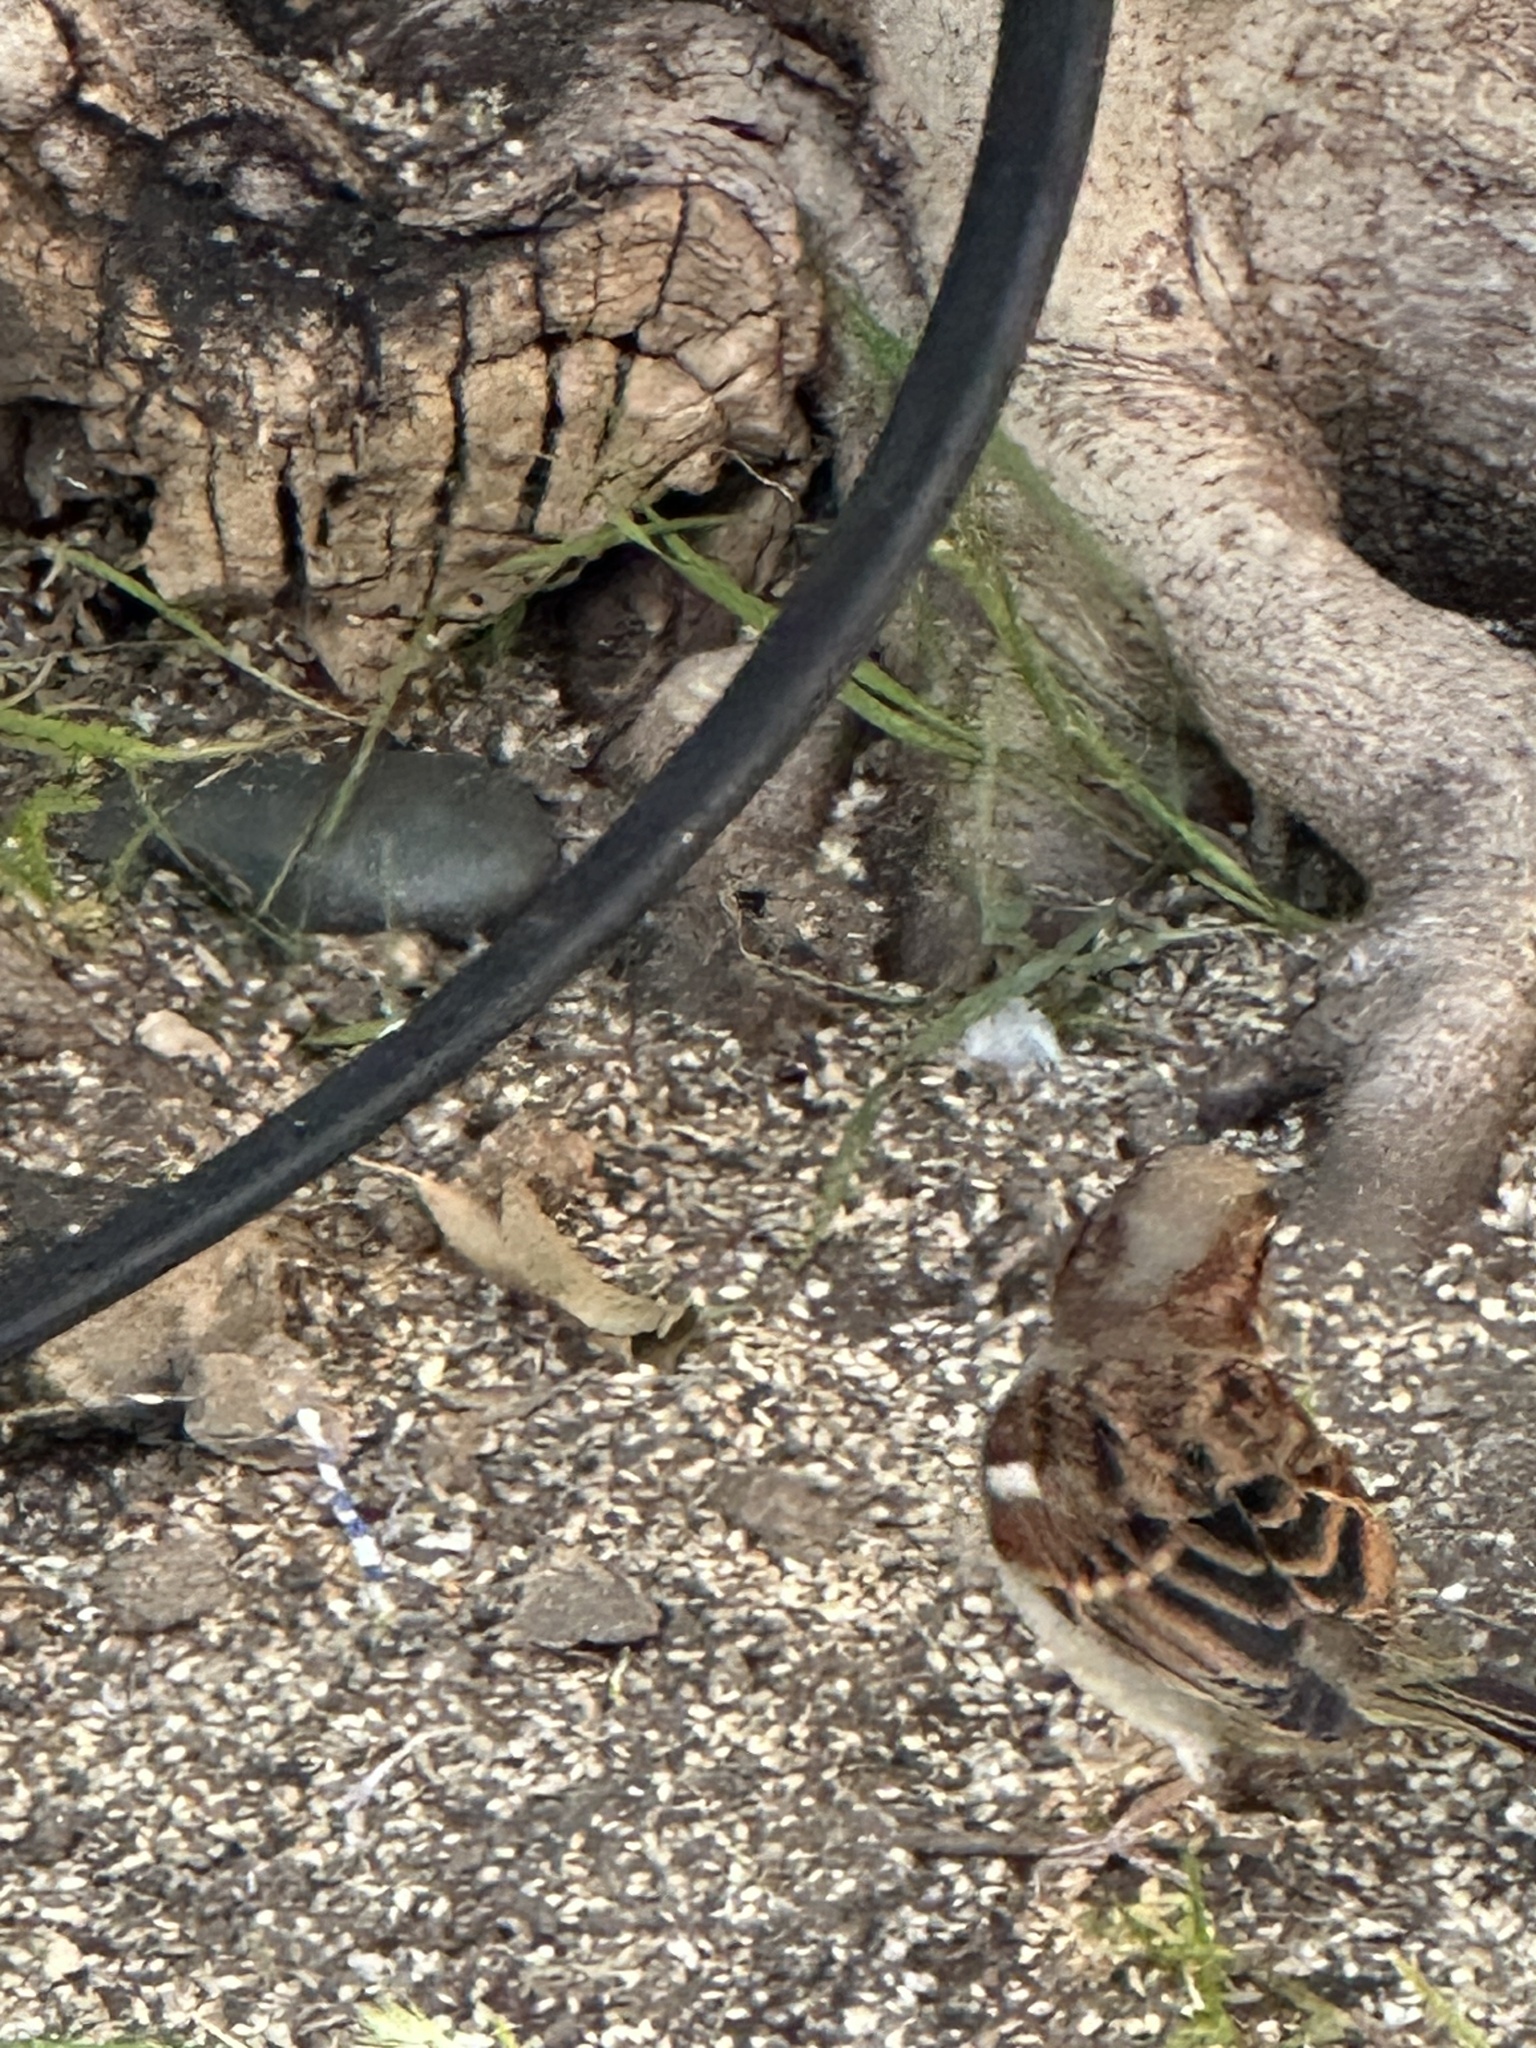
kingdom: Animalia
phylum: Chordata
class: Aves
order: Passeriformes
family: Passeridae
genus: Passer
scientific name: Passer domesticus
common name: House sparrow
